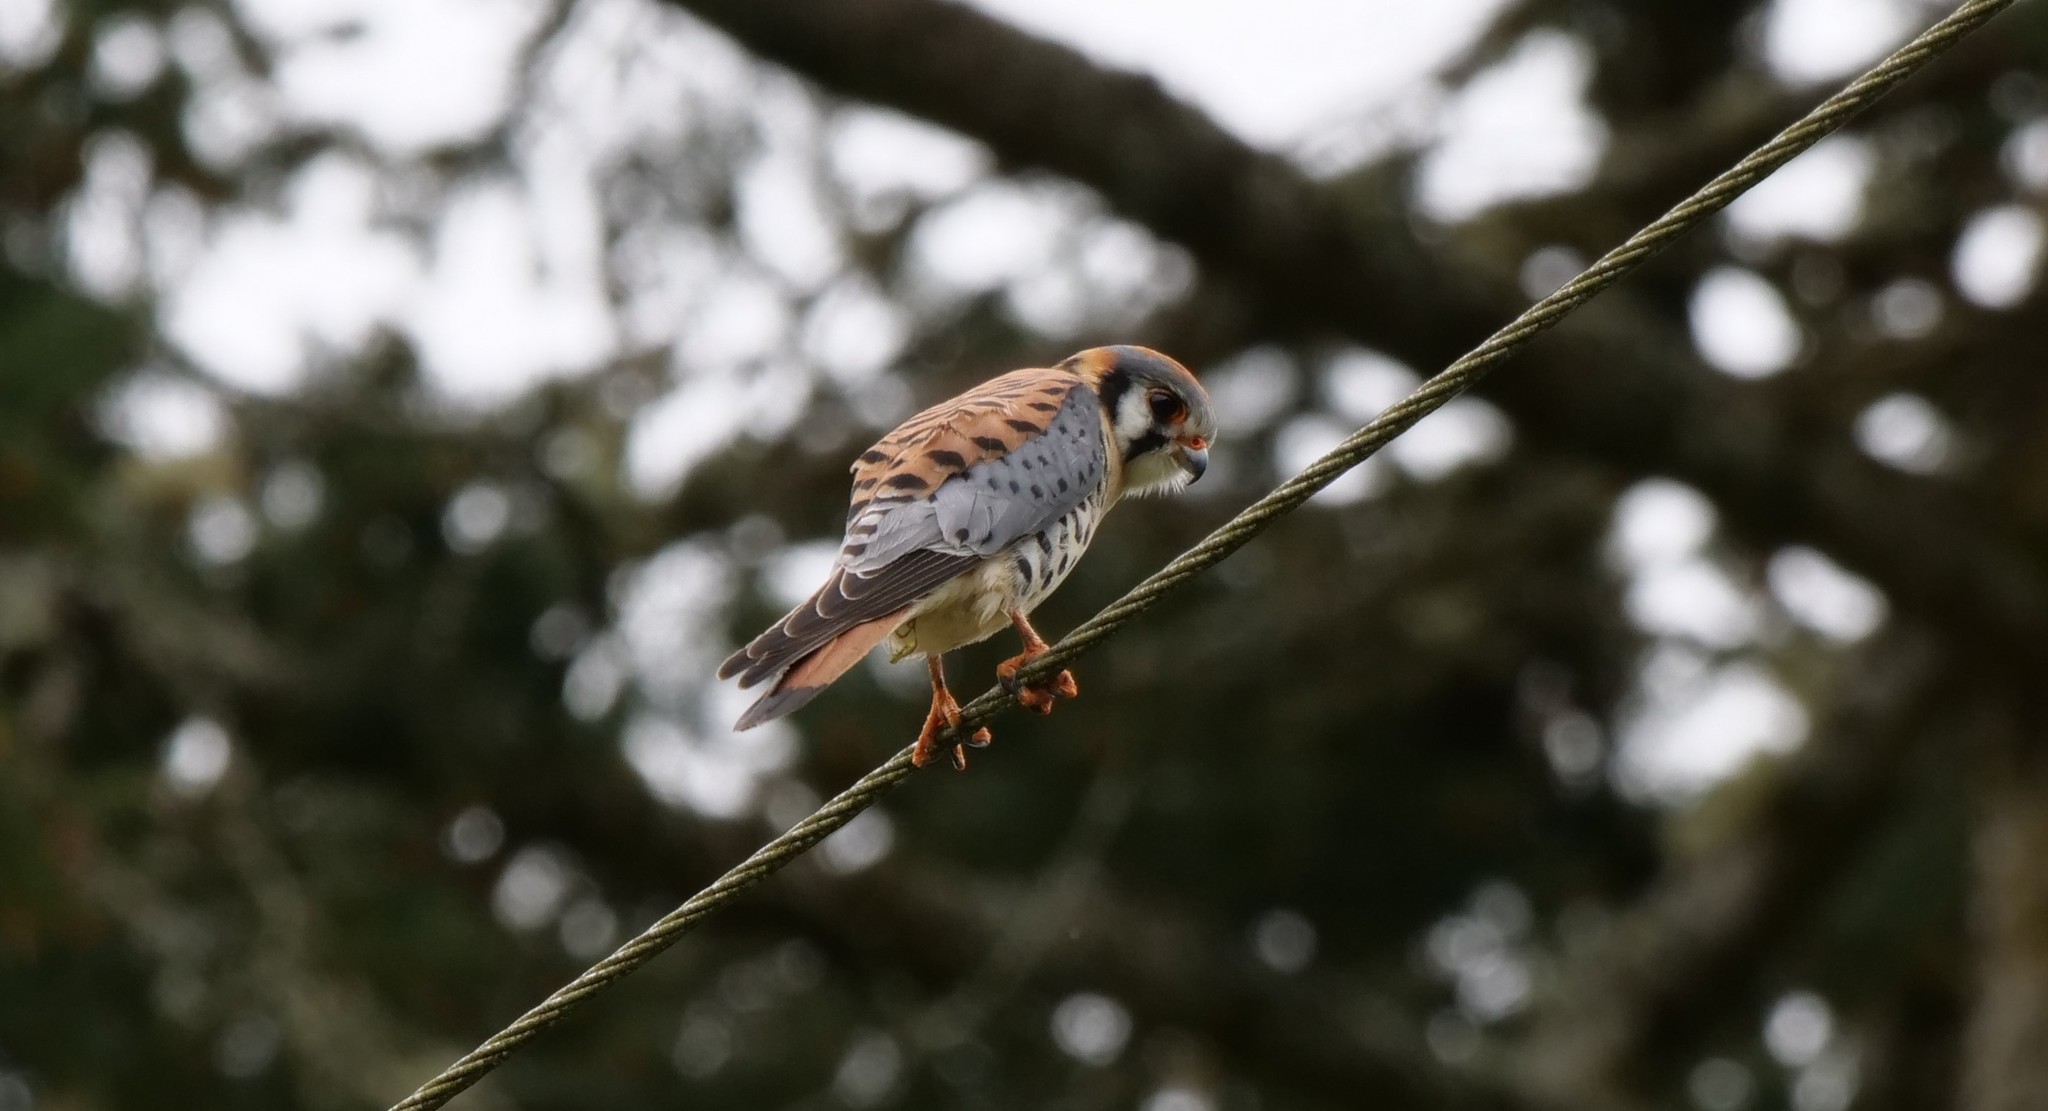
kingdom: Animalia
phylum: Chordata
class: Aves
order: Falconiformes
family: Falconidae
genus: Falco
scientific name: Falco sparverius
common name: American kestrel
